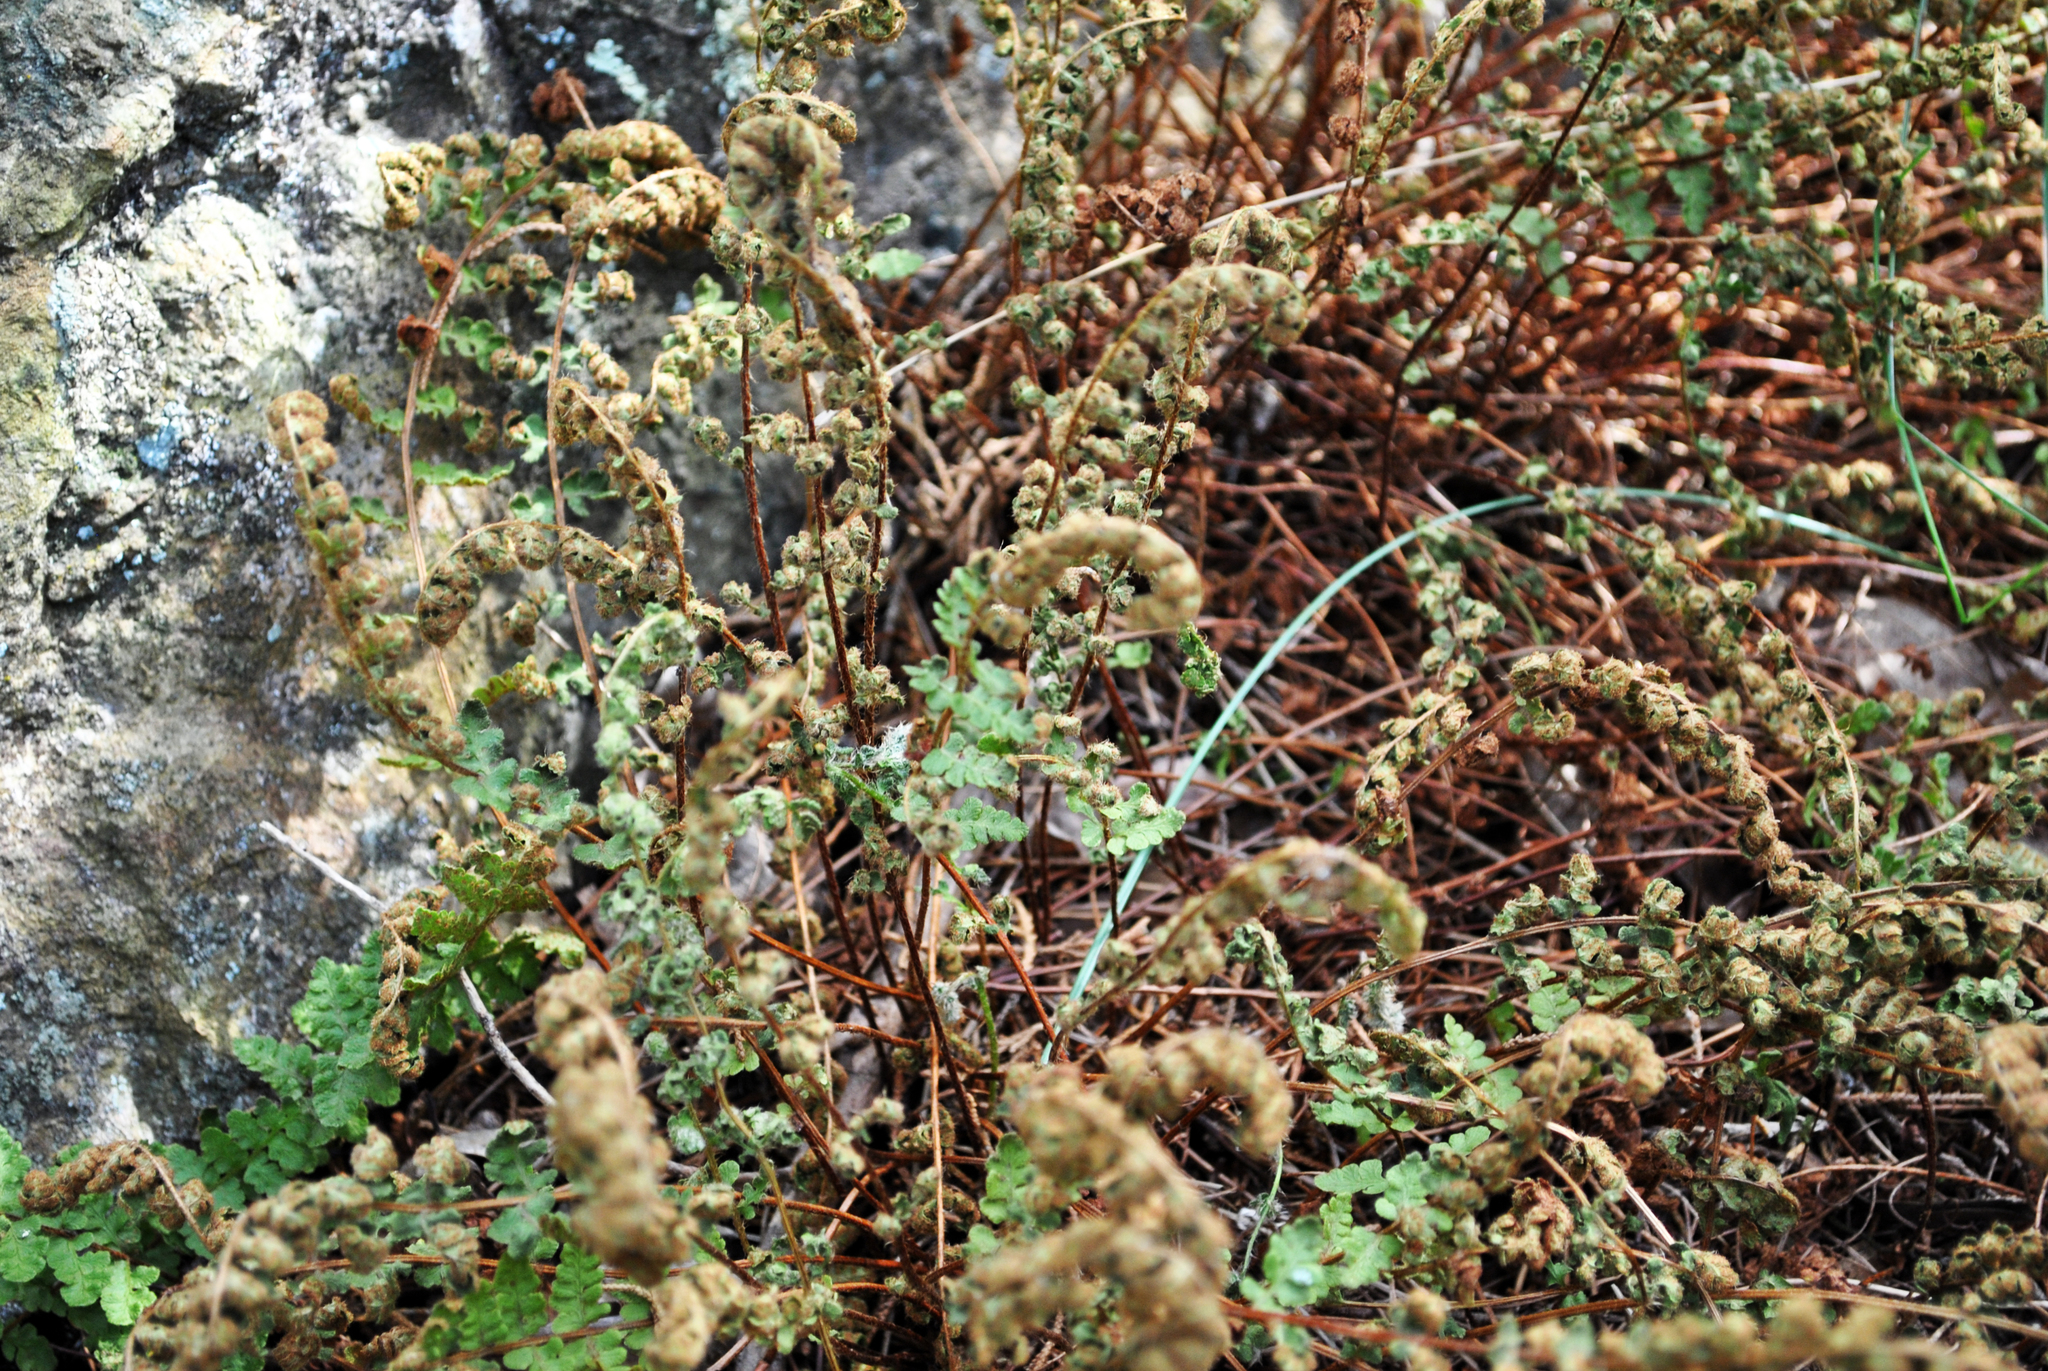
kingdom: Plantae
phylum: Tracheophyta
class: Polypodiopsida
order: Polypodiales
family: Woodsiaceae
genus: Woodsia
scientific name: Woodsia ilvensis
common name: Fragrant woodsia
